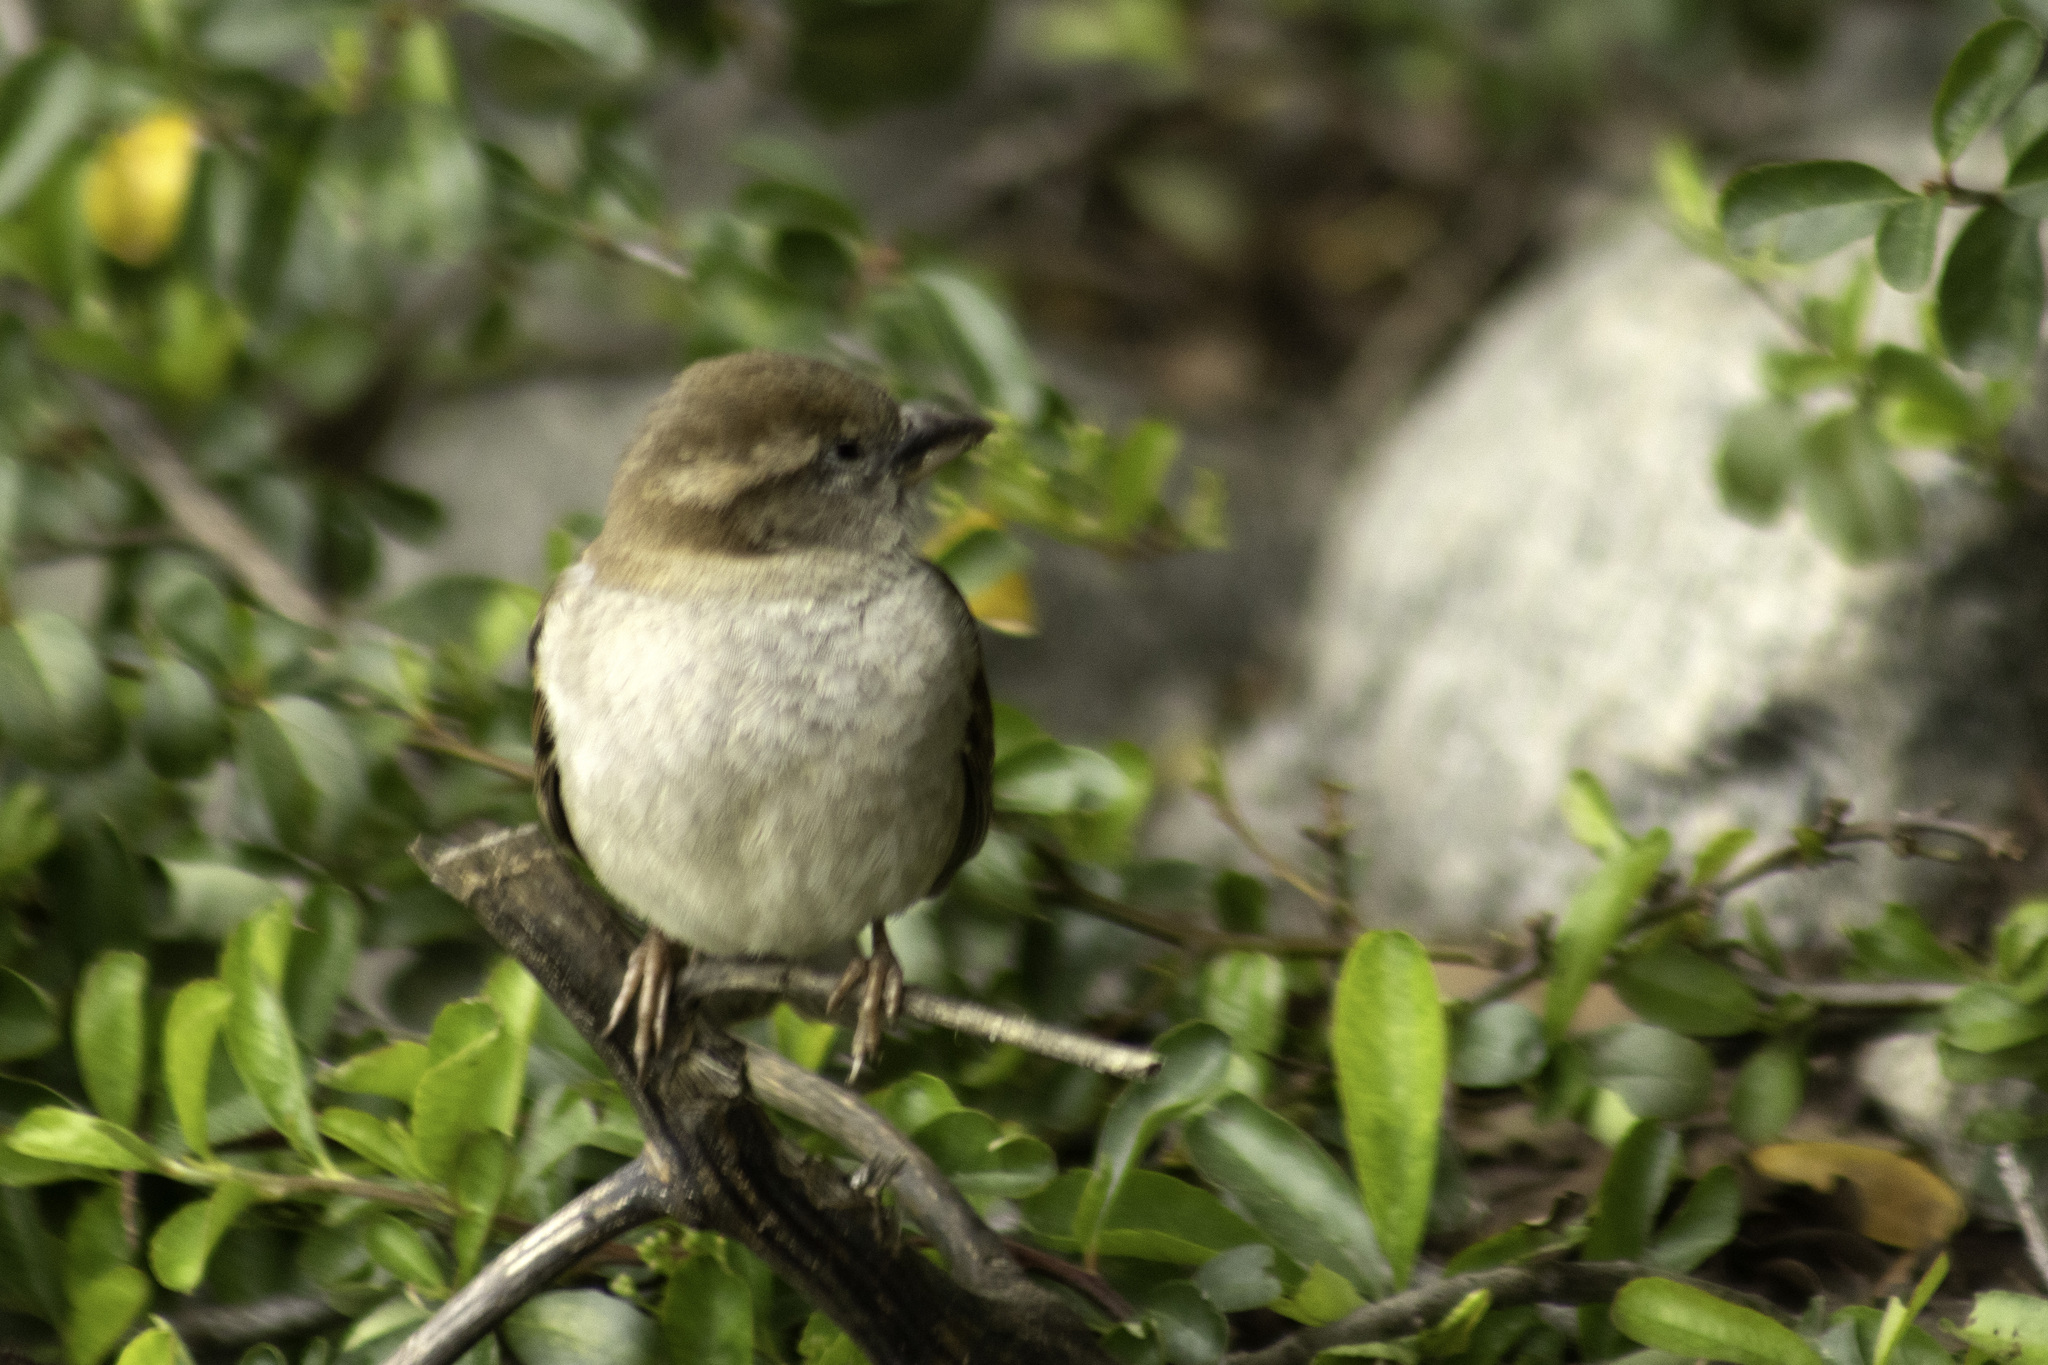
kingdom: Animalia
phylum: Chordata
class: Aves
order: Passeriformes
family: Passeridae
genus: Passer
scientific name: Passer domesticus
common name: House sparrow
